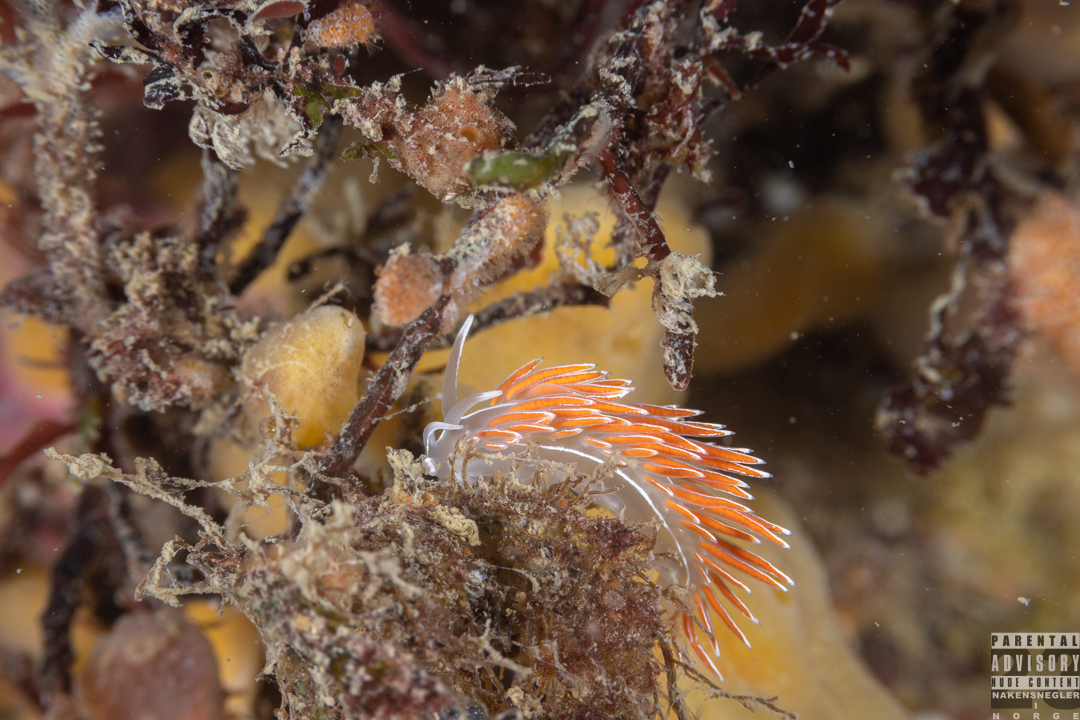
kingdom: Animalia
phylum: Mollusca
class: Gastropoda
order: Nudibranchia
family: Coryphellidae
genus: Coryphella
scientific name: Coryphella lineata
